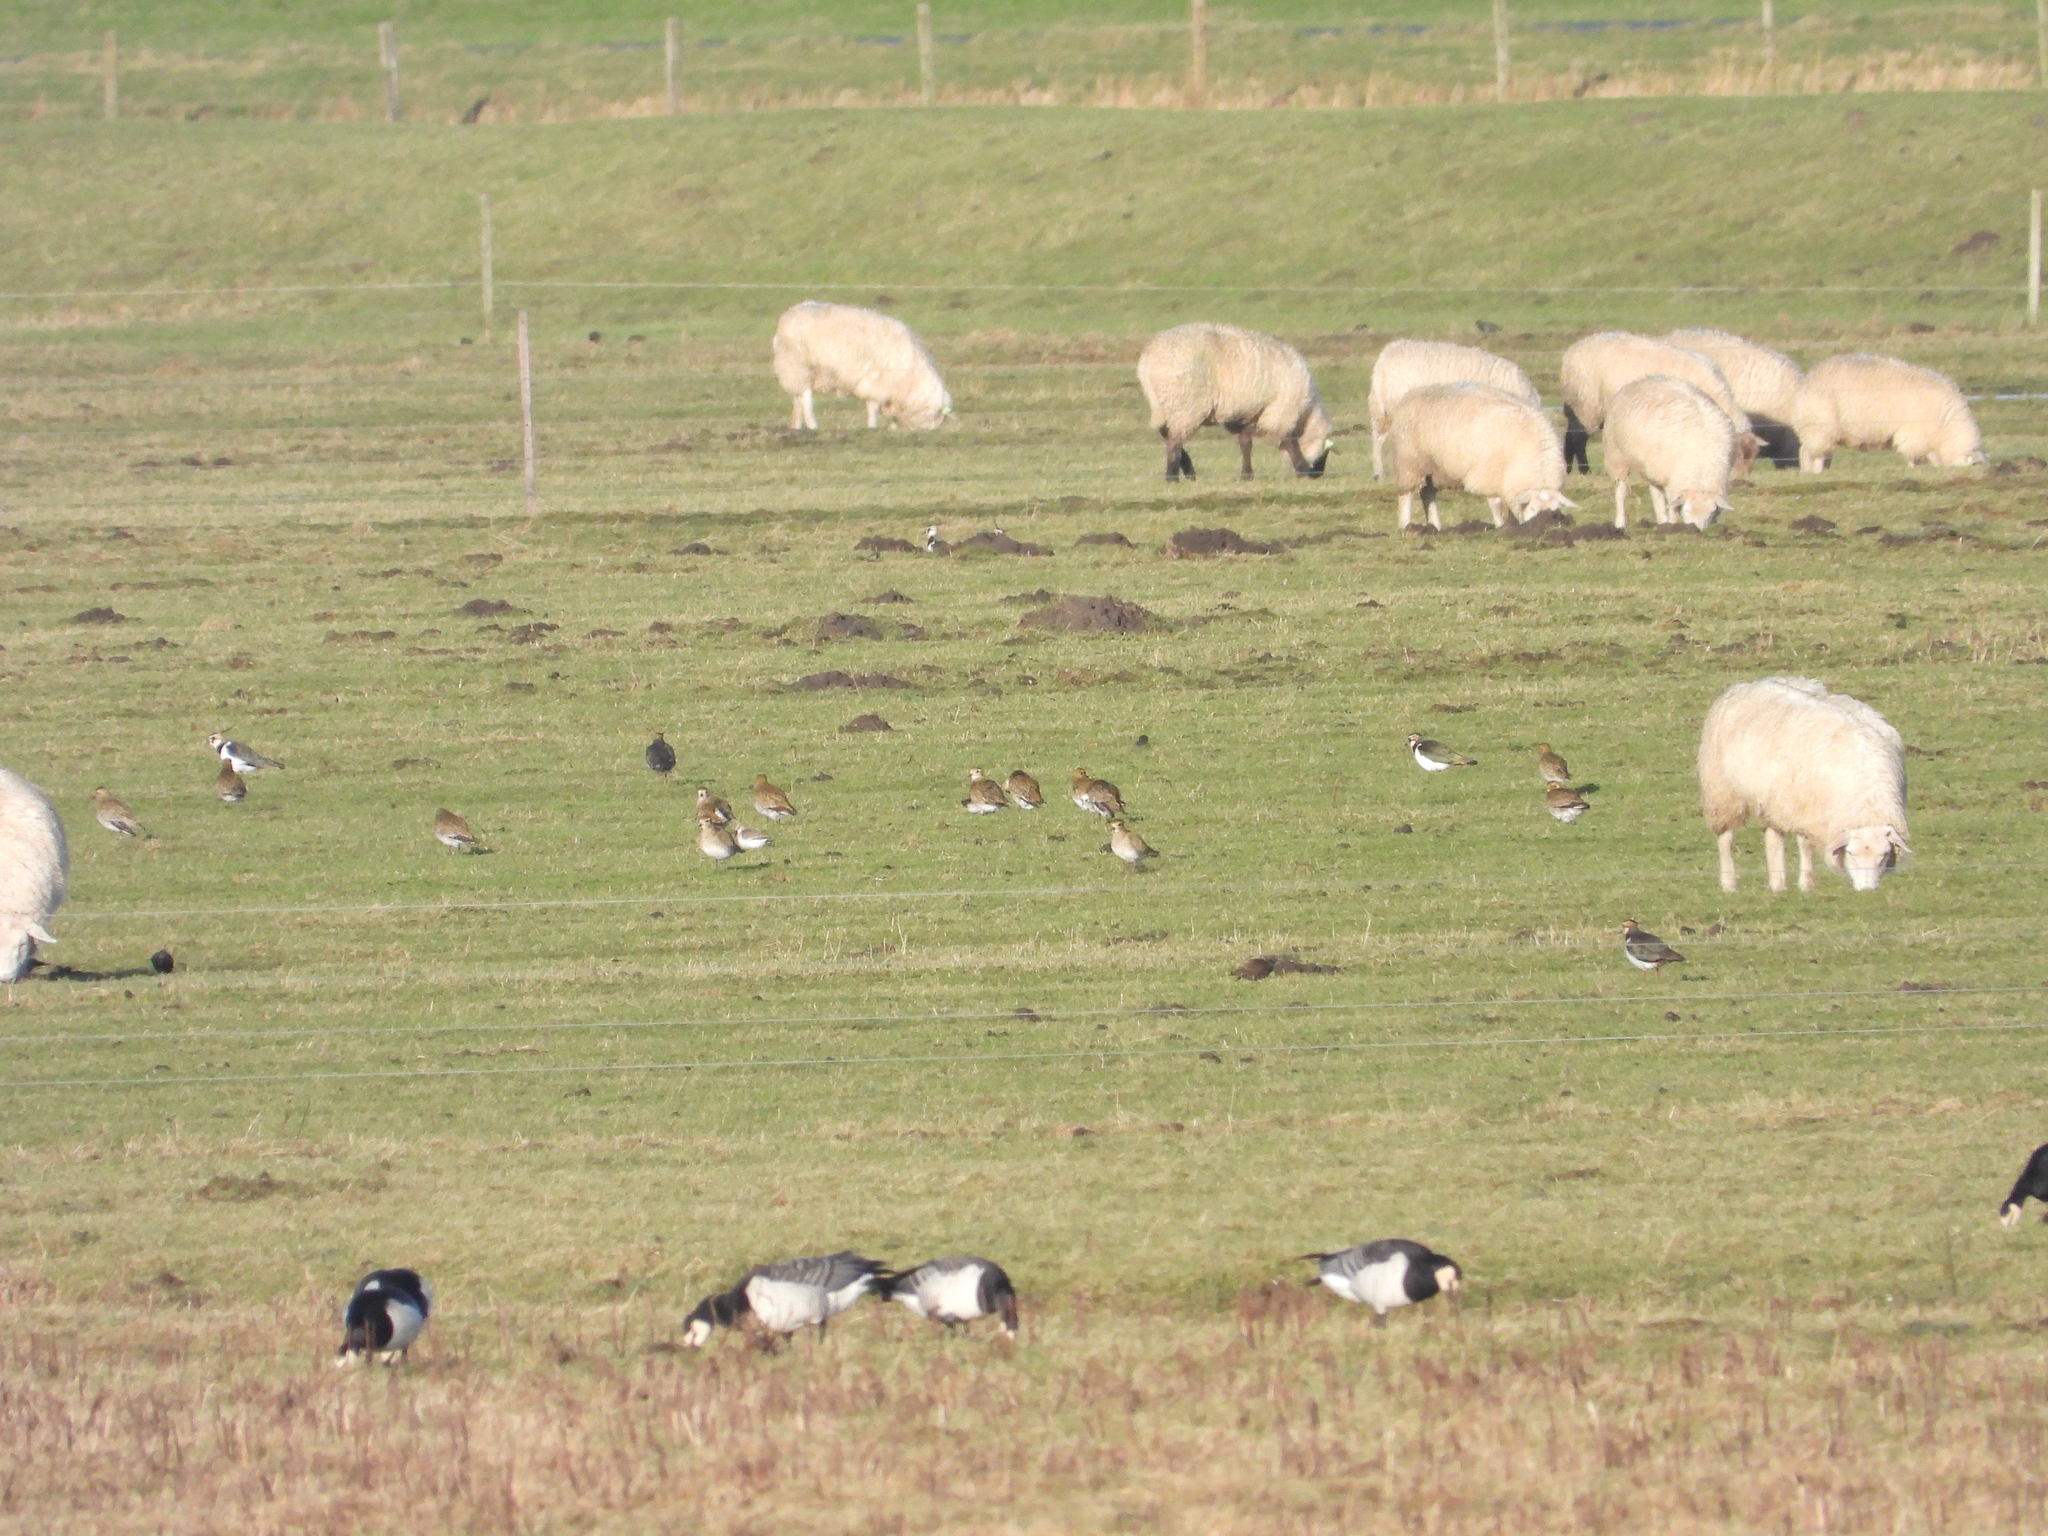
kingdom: Animalia
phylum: Chordata
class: Aves
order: Charadriiformes
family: Charadriidae
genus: Pluvialis
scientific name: Pluvialis apricaria
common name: European golden plover
